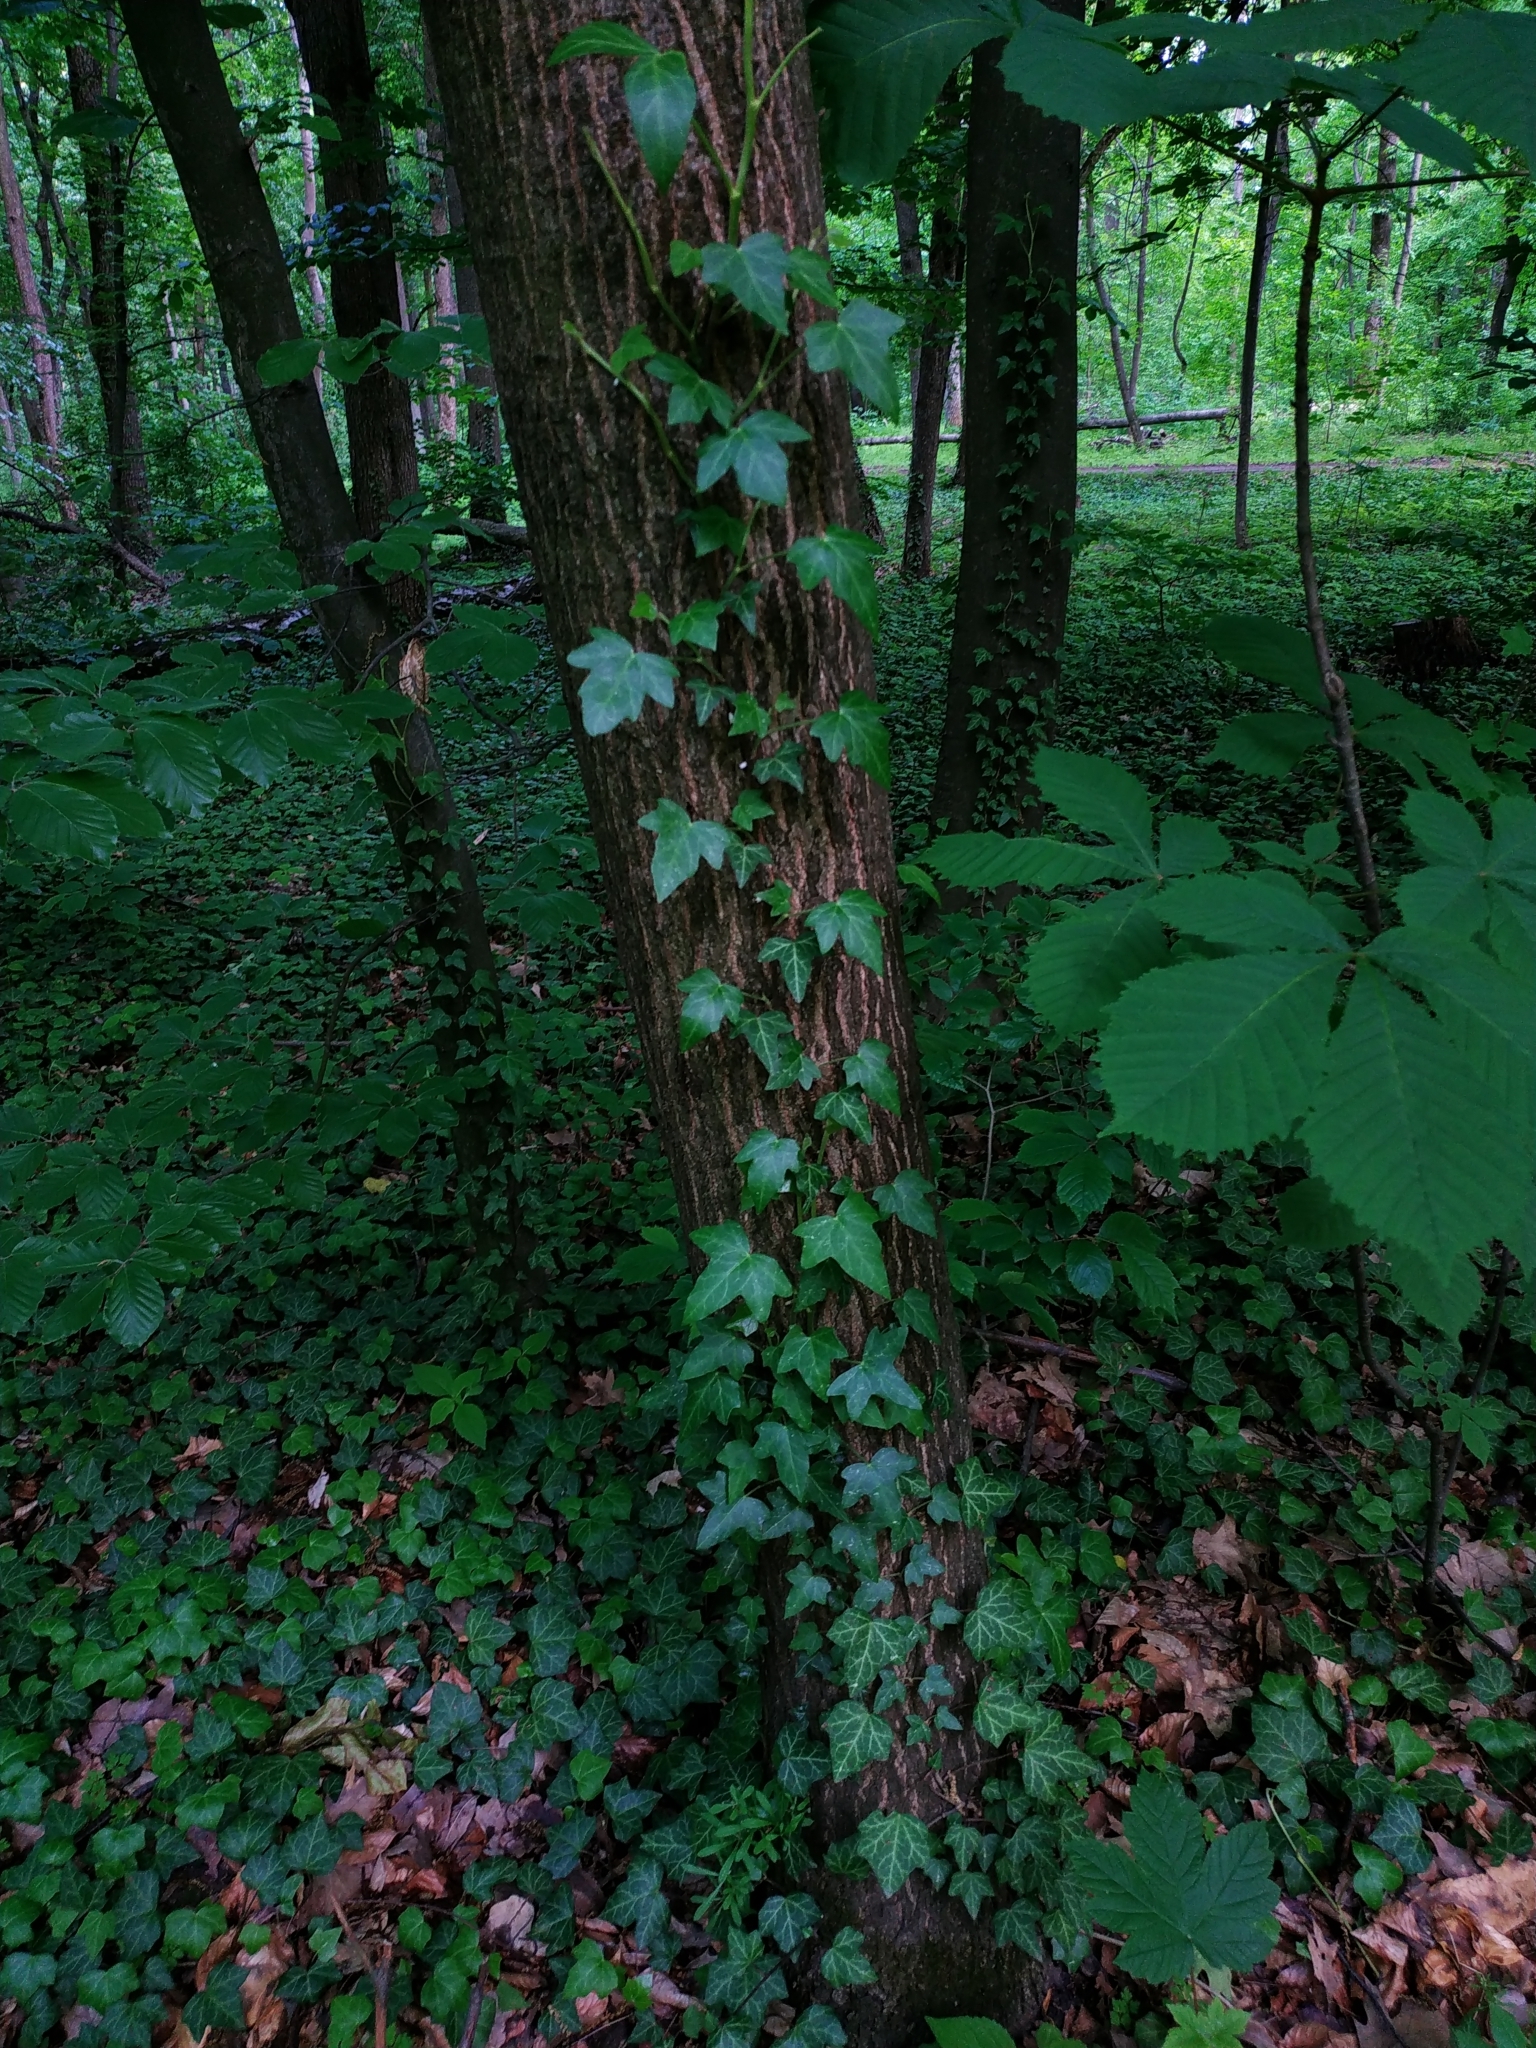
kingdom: Plantae
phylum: Tracheophyta
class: Magnoliopsida
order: Apiales
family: Araliaceae
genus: Hedera
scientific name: Hedera helix
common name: Ivy
